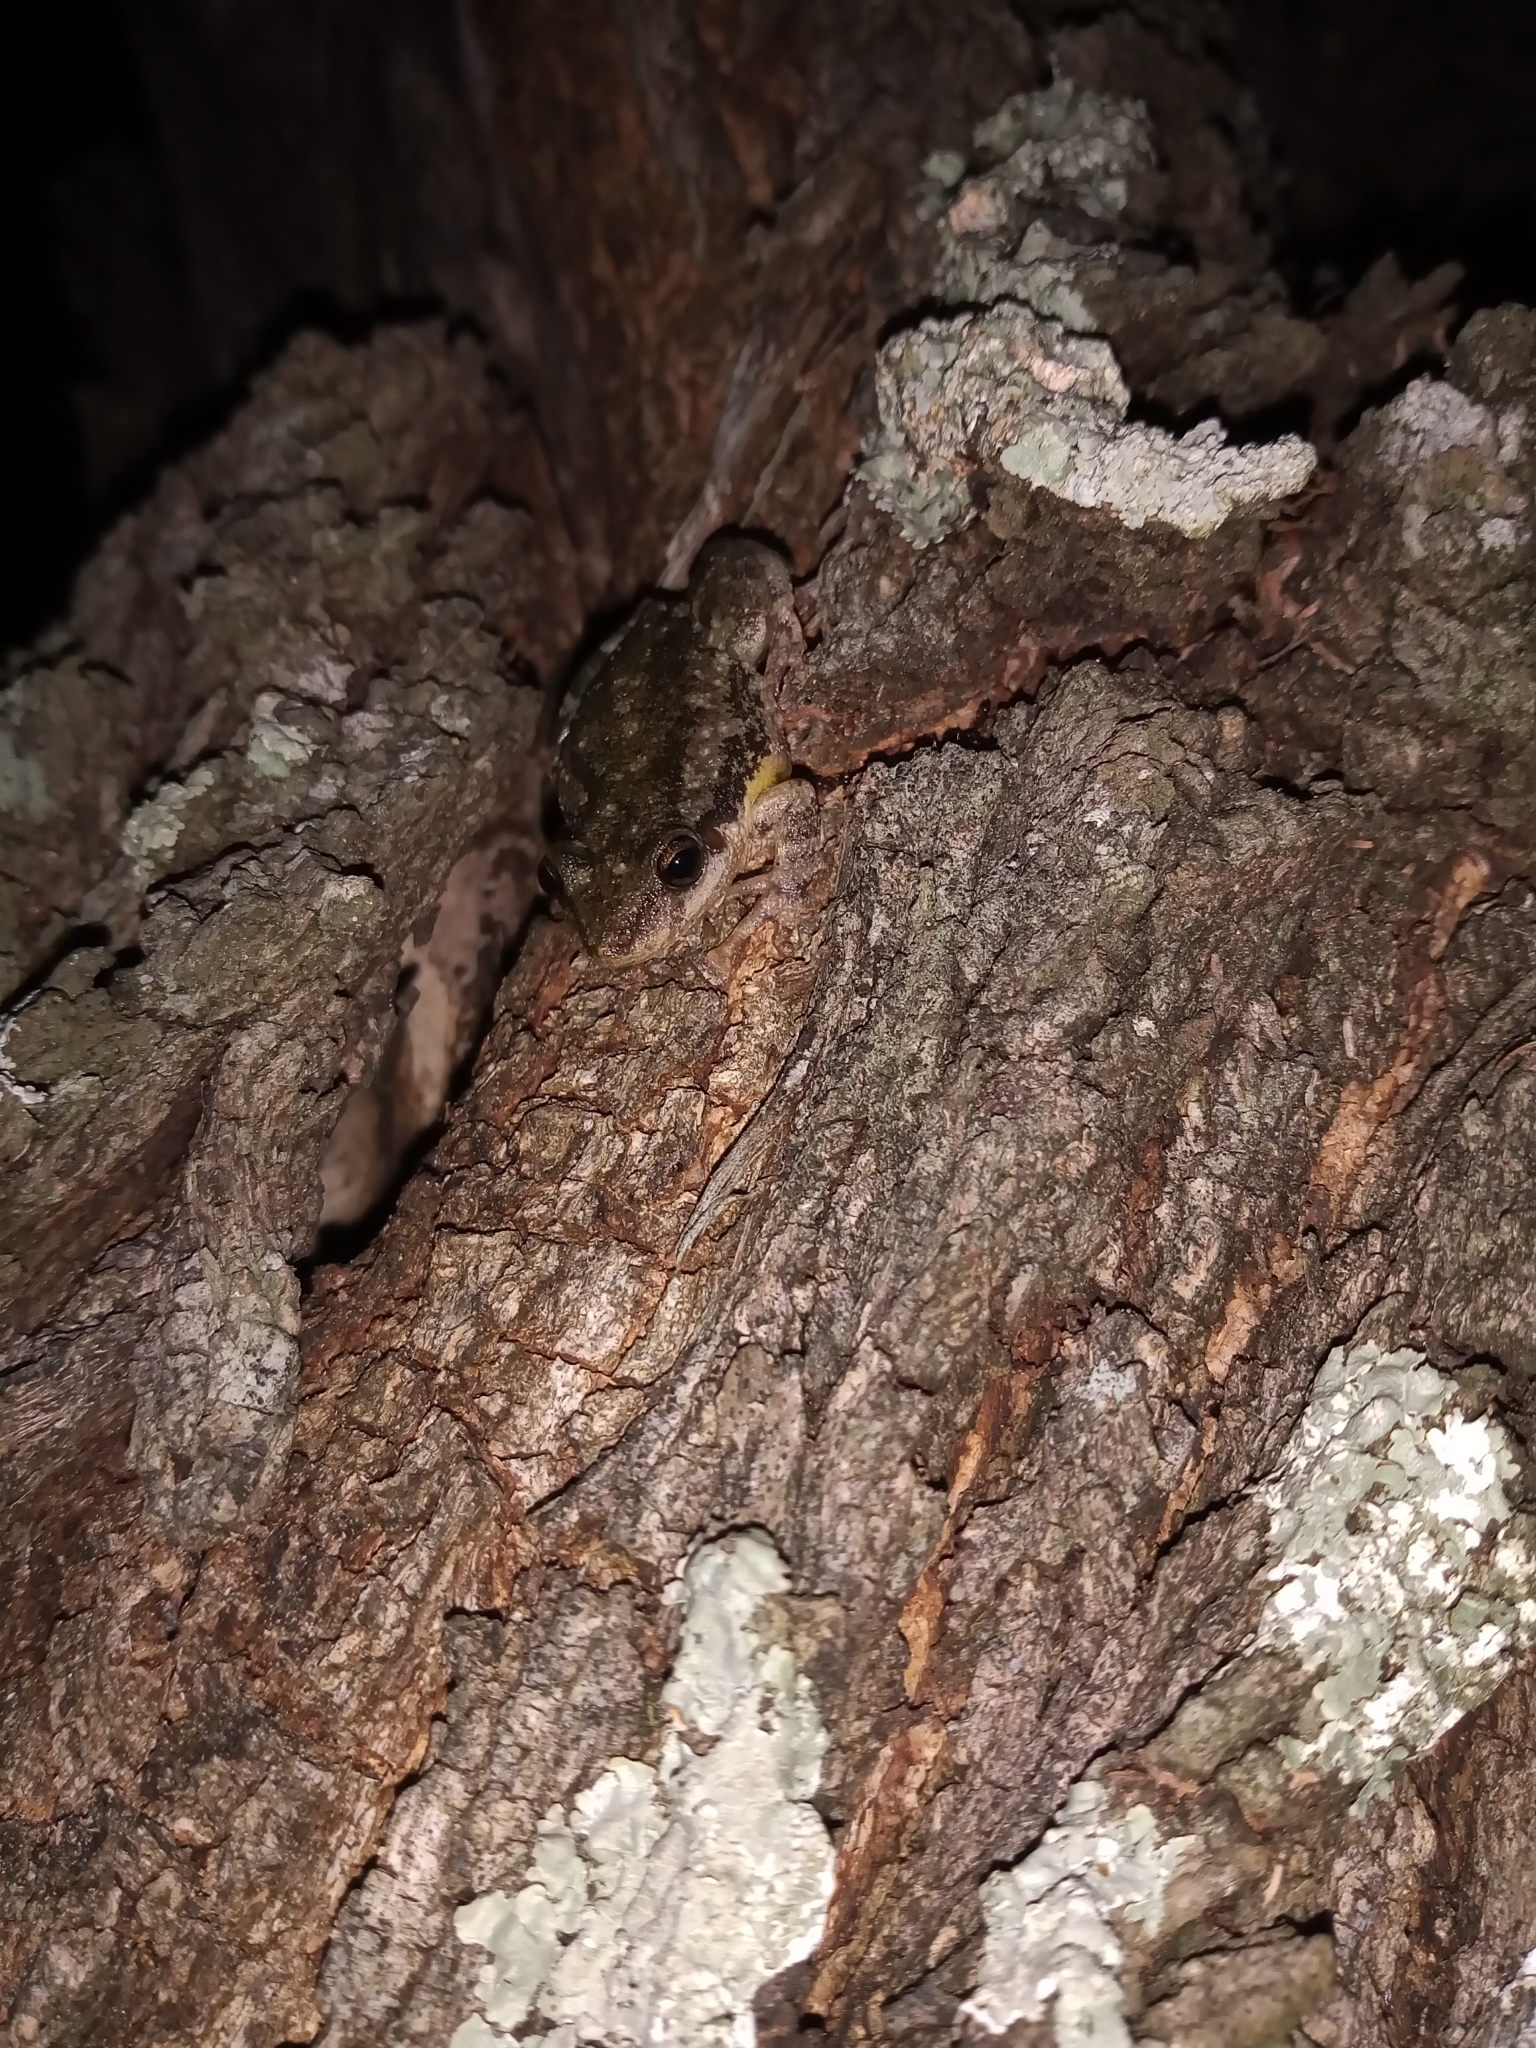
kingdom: Animalia
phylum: Chordata
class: Amphibia
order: Anura
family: Hylidae
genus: Scinax
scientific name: Scinax nasicus
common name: Lesser snouted treefrog
